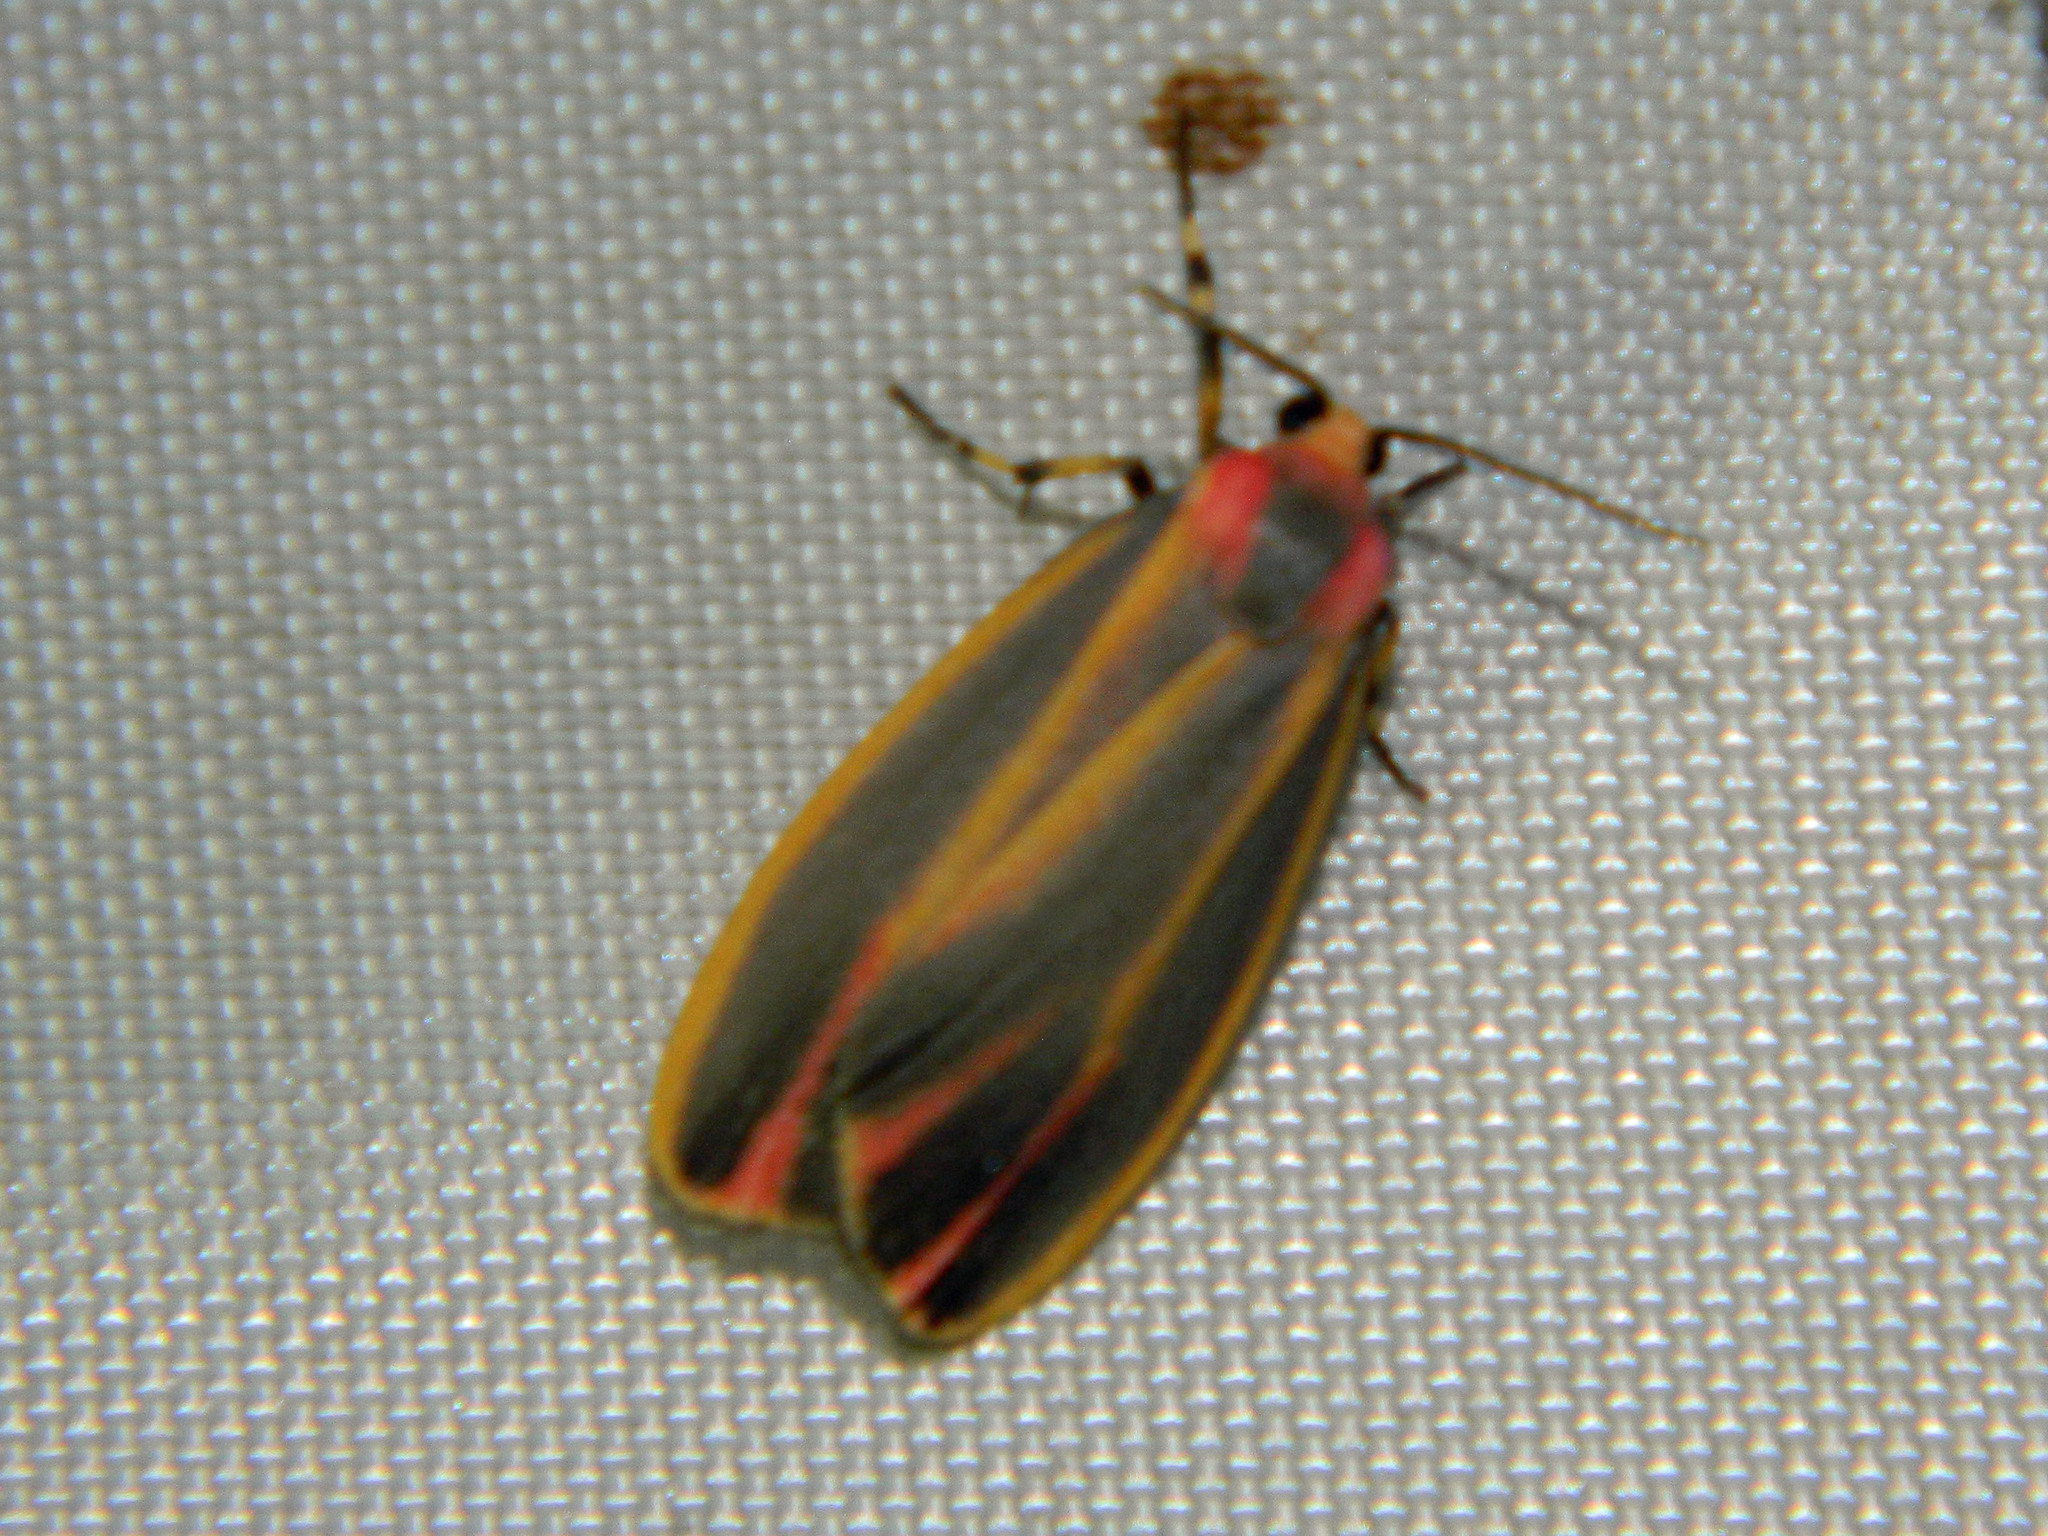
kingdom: Animalia
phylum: Arthropoda
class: Insecta
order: Lepidoptera
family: Erebidae
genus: Hypoprepia
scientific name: Hypoprepia fucosa
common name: Painted lichen moth
